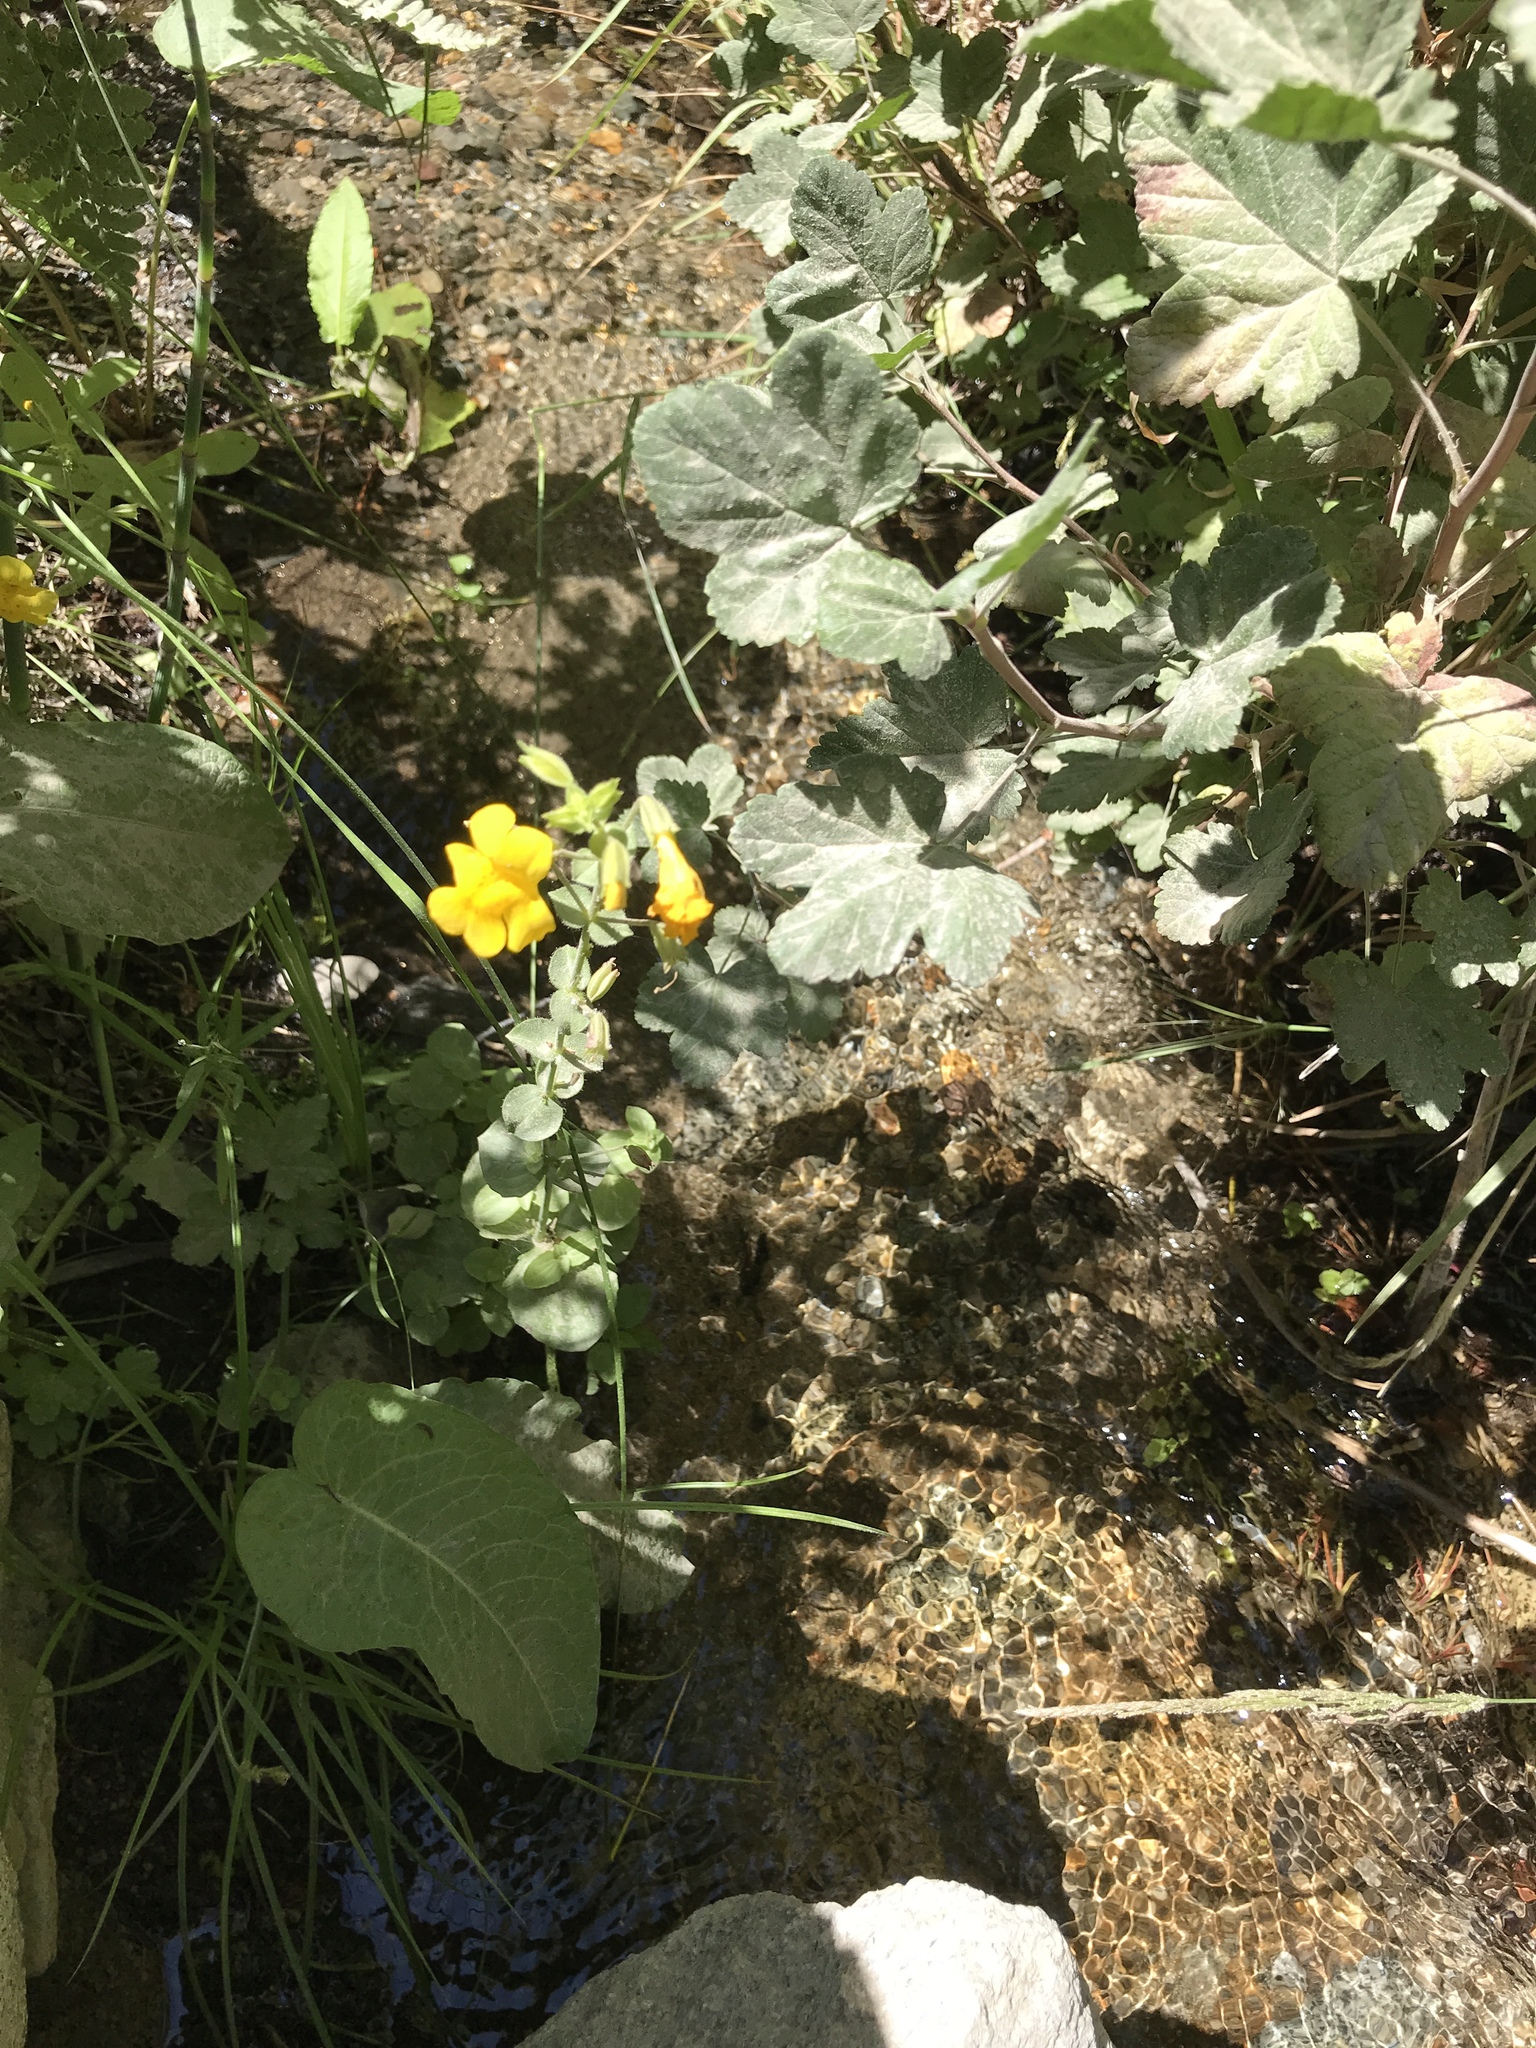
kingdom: Plantae
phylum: Tracheophyta
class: Magnoliopsida
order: Lamiales
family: Phrymaceae
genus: Erythranthe
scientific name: Erythranthe guttata
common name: Monkeyflower
